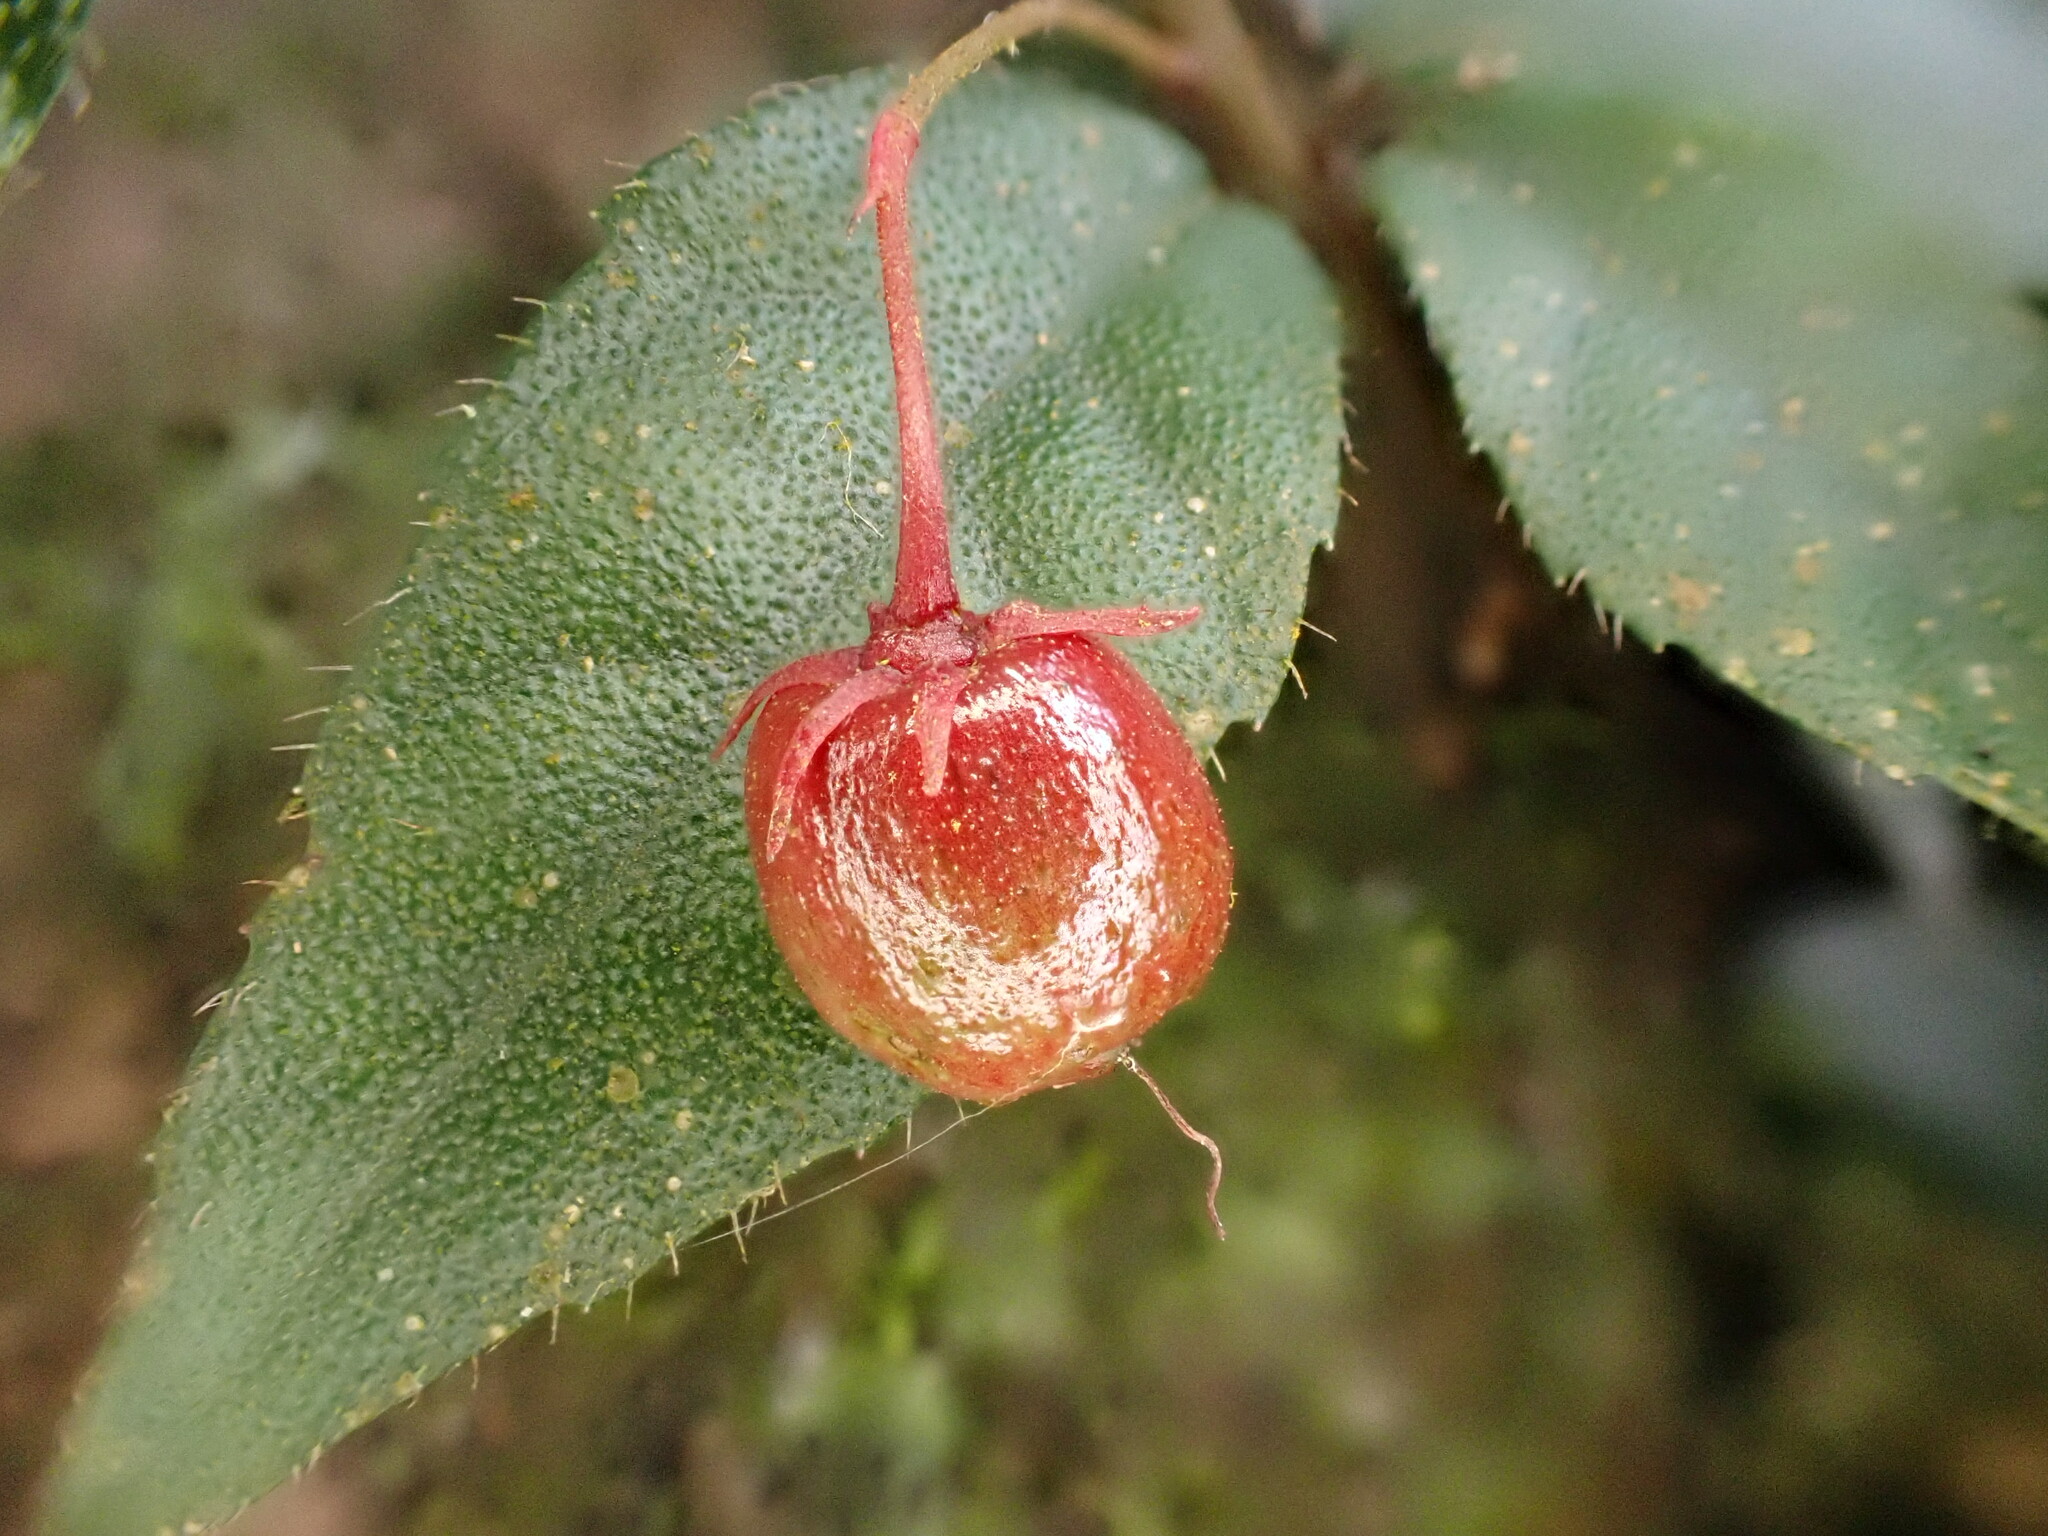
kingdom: Plantae
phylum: Tracheophyta
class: Magnoliopsida
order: Ericales
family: Primulaceae
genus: Ardisia
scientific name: Ardisia pusilla
